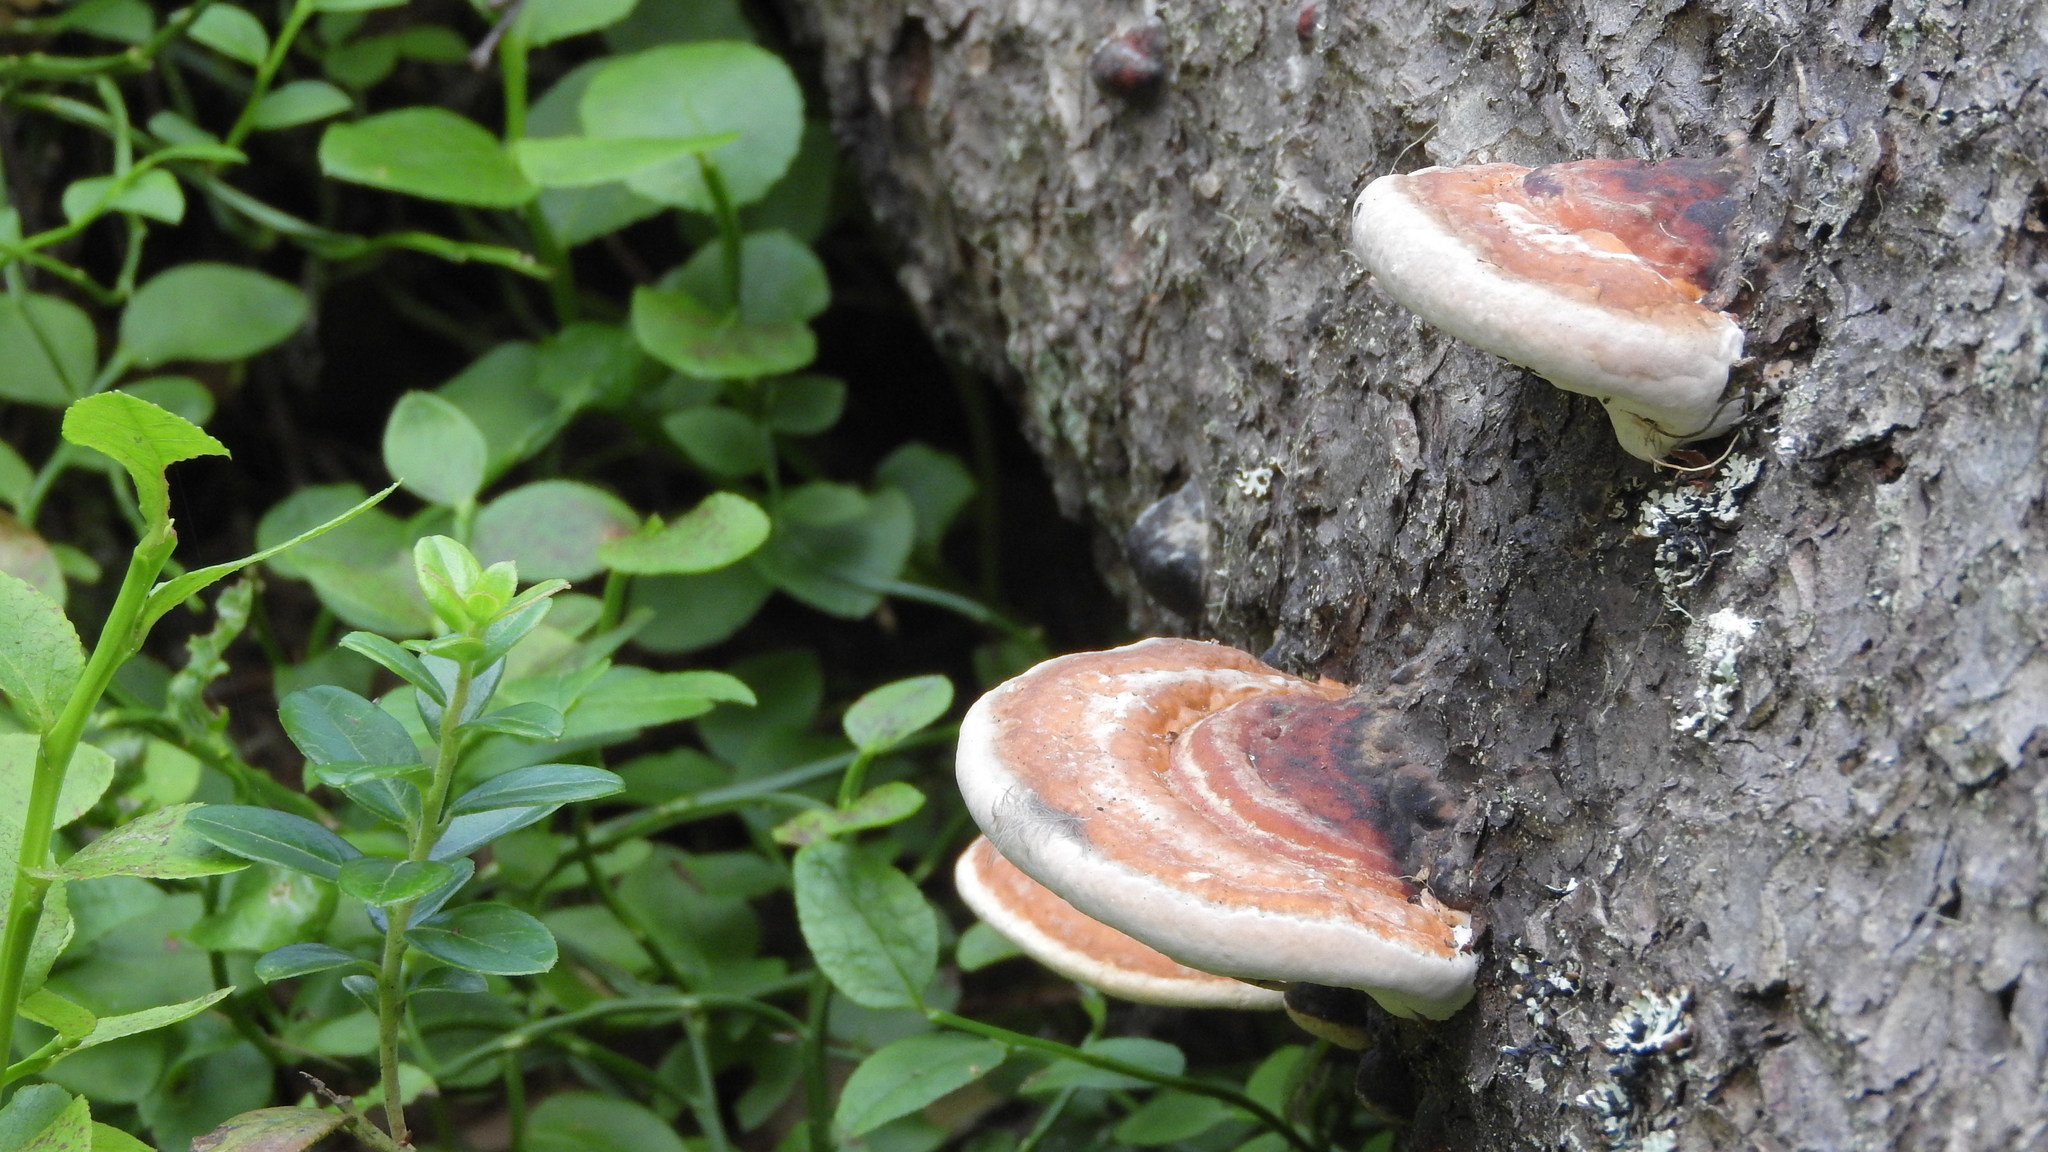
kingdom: Fungi
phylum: Basidiomycota
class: Agaricomycetes
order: Polyporales
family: Fomitopsidaceae
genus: Fomitopsis
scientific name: Fomitopsis pinicola
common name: Red-belted bracket
